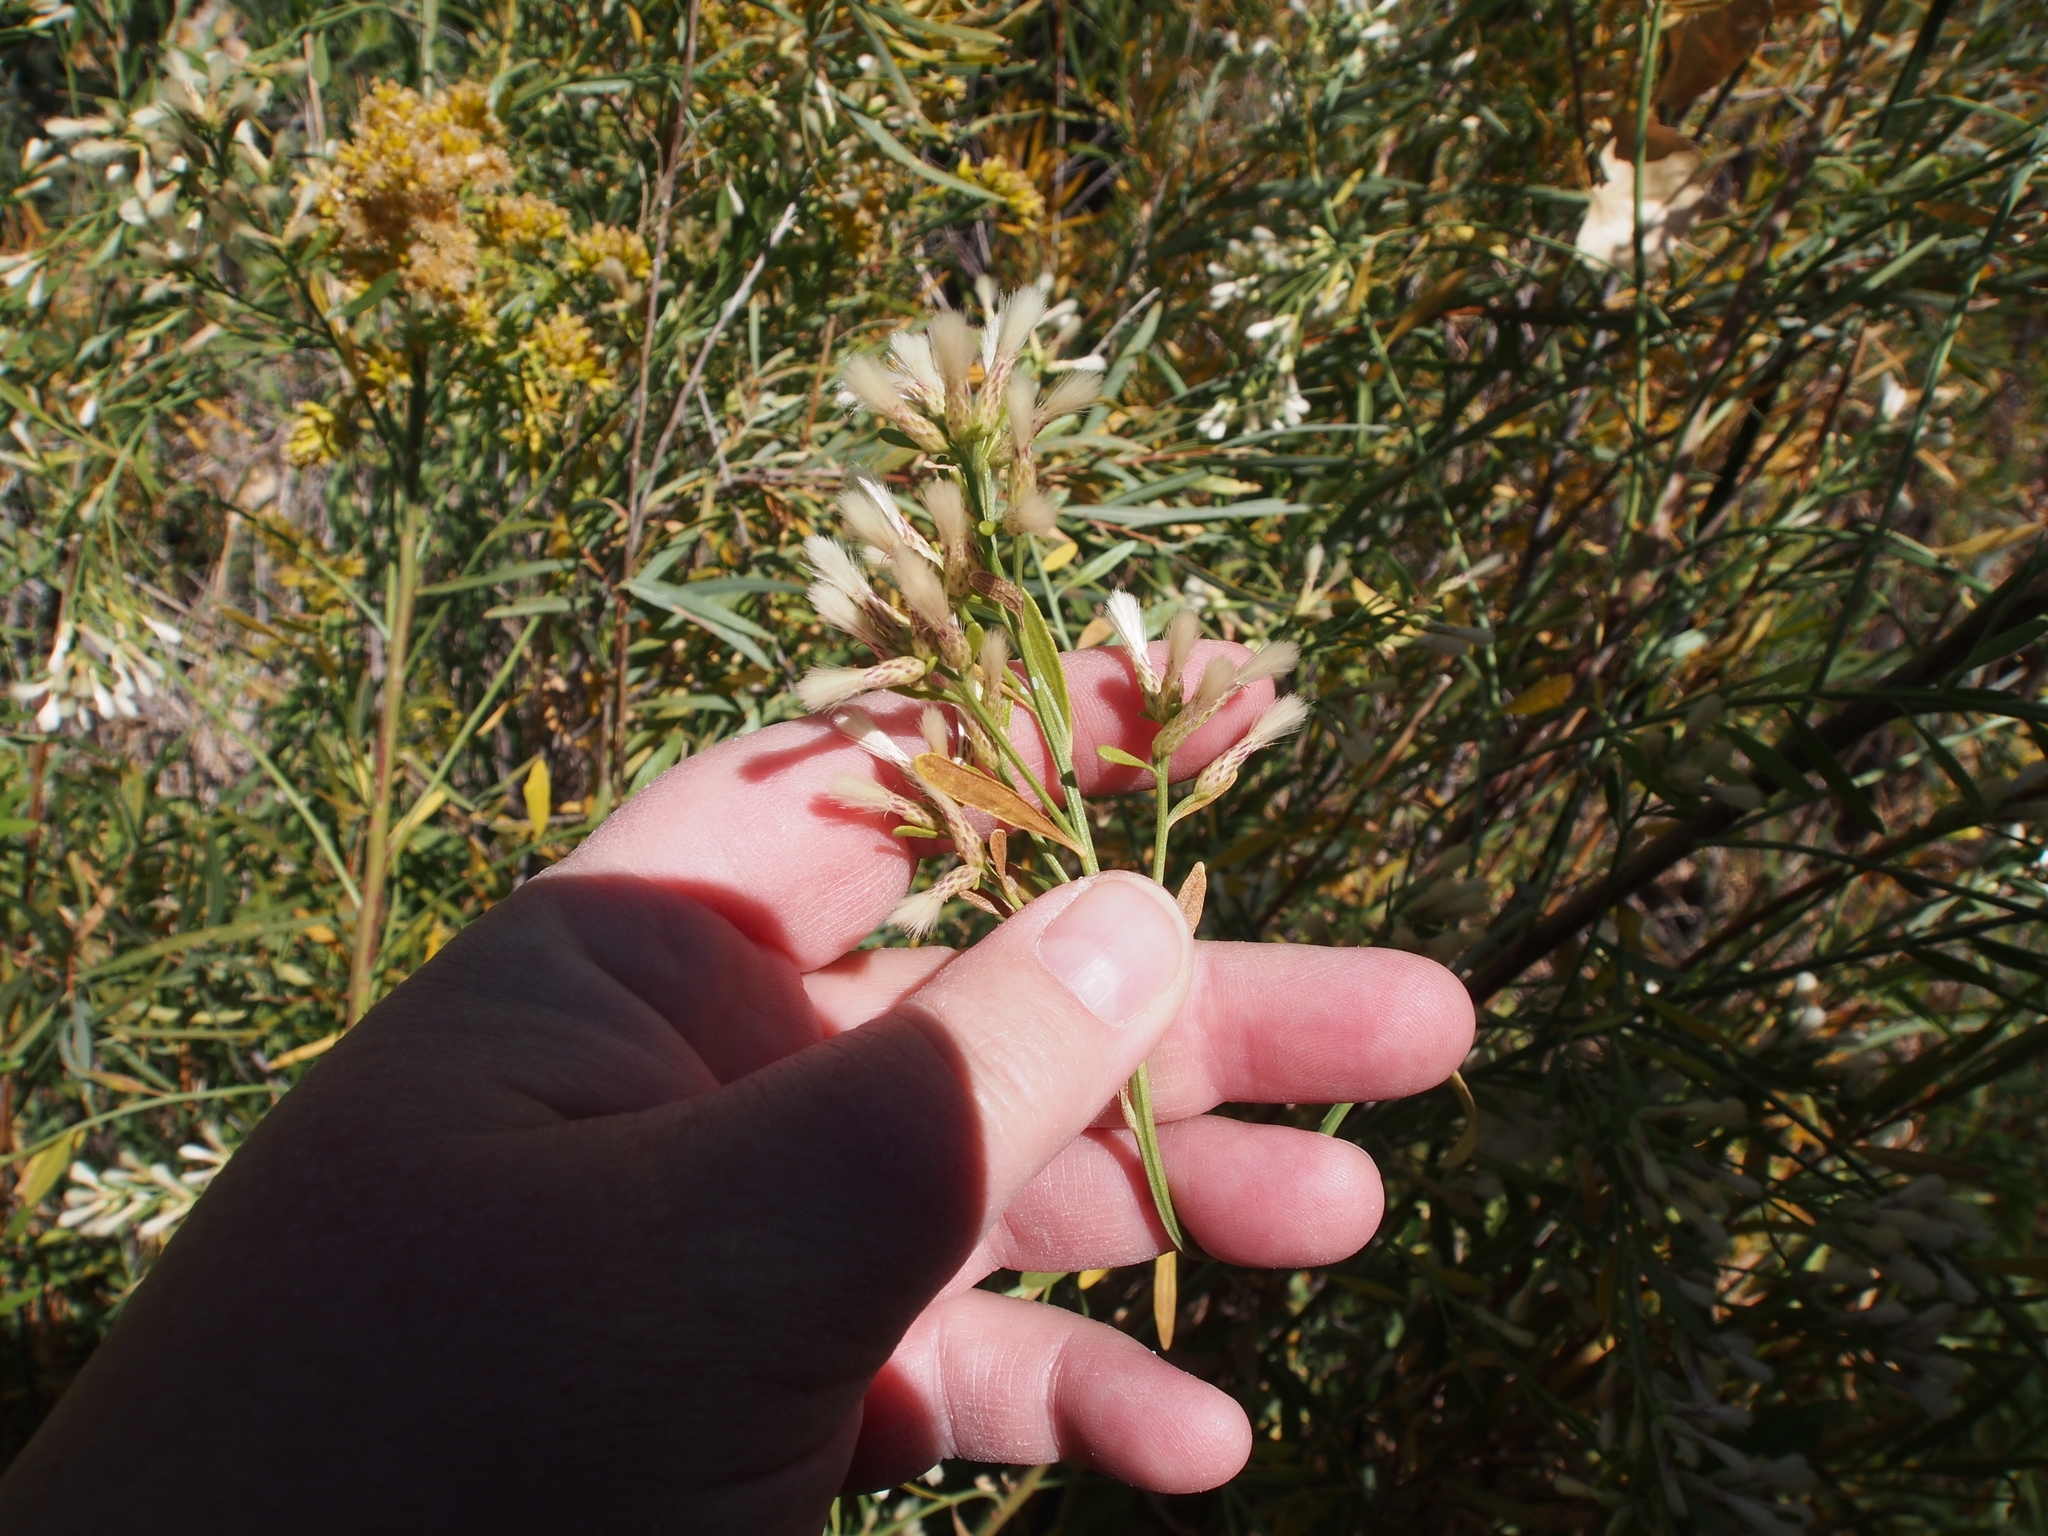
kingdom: Plantae
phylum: Tracheophyta
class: Magnoliopsida
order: Asterales
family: Asteraceae
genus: Baccharis
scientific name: Baccharis salicina
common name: Willow baccharis
